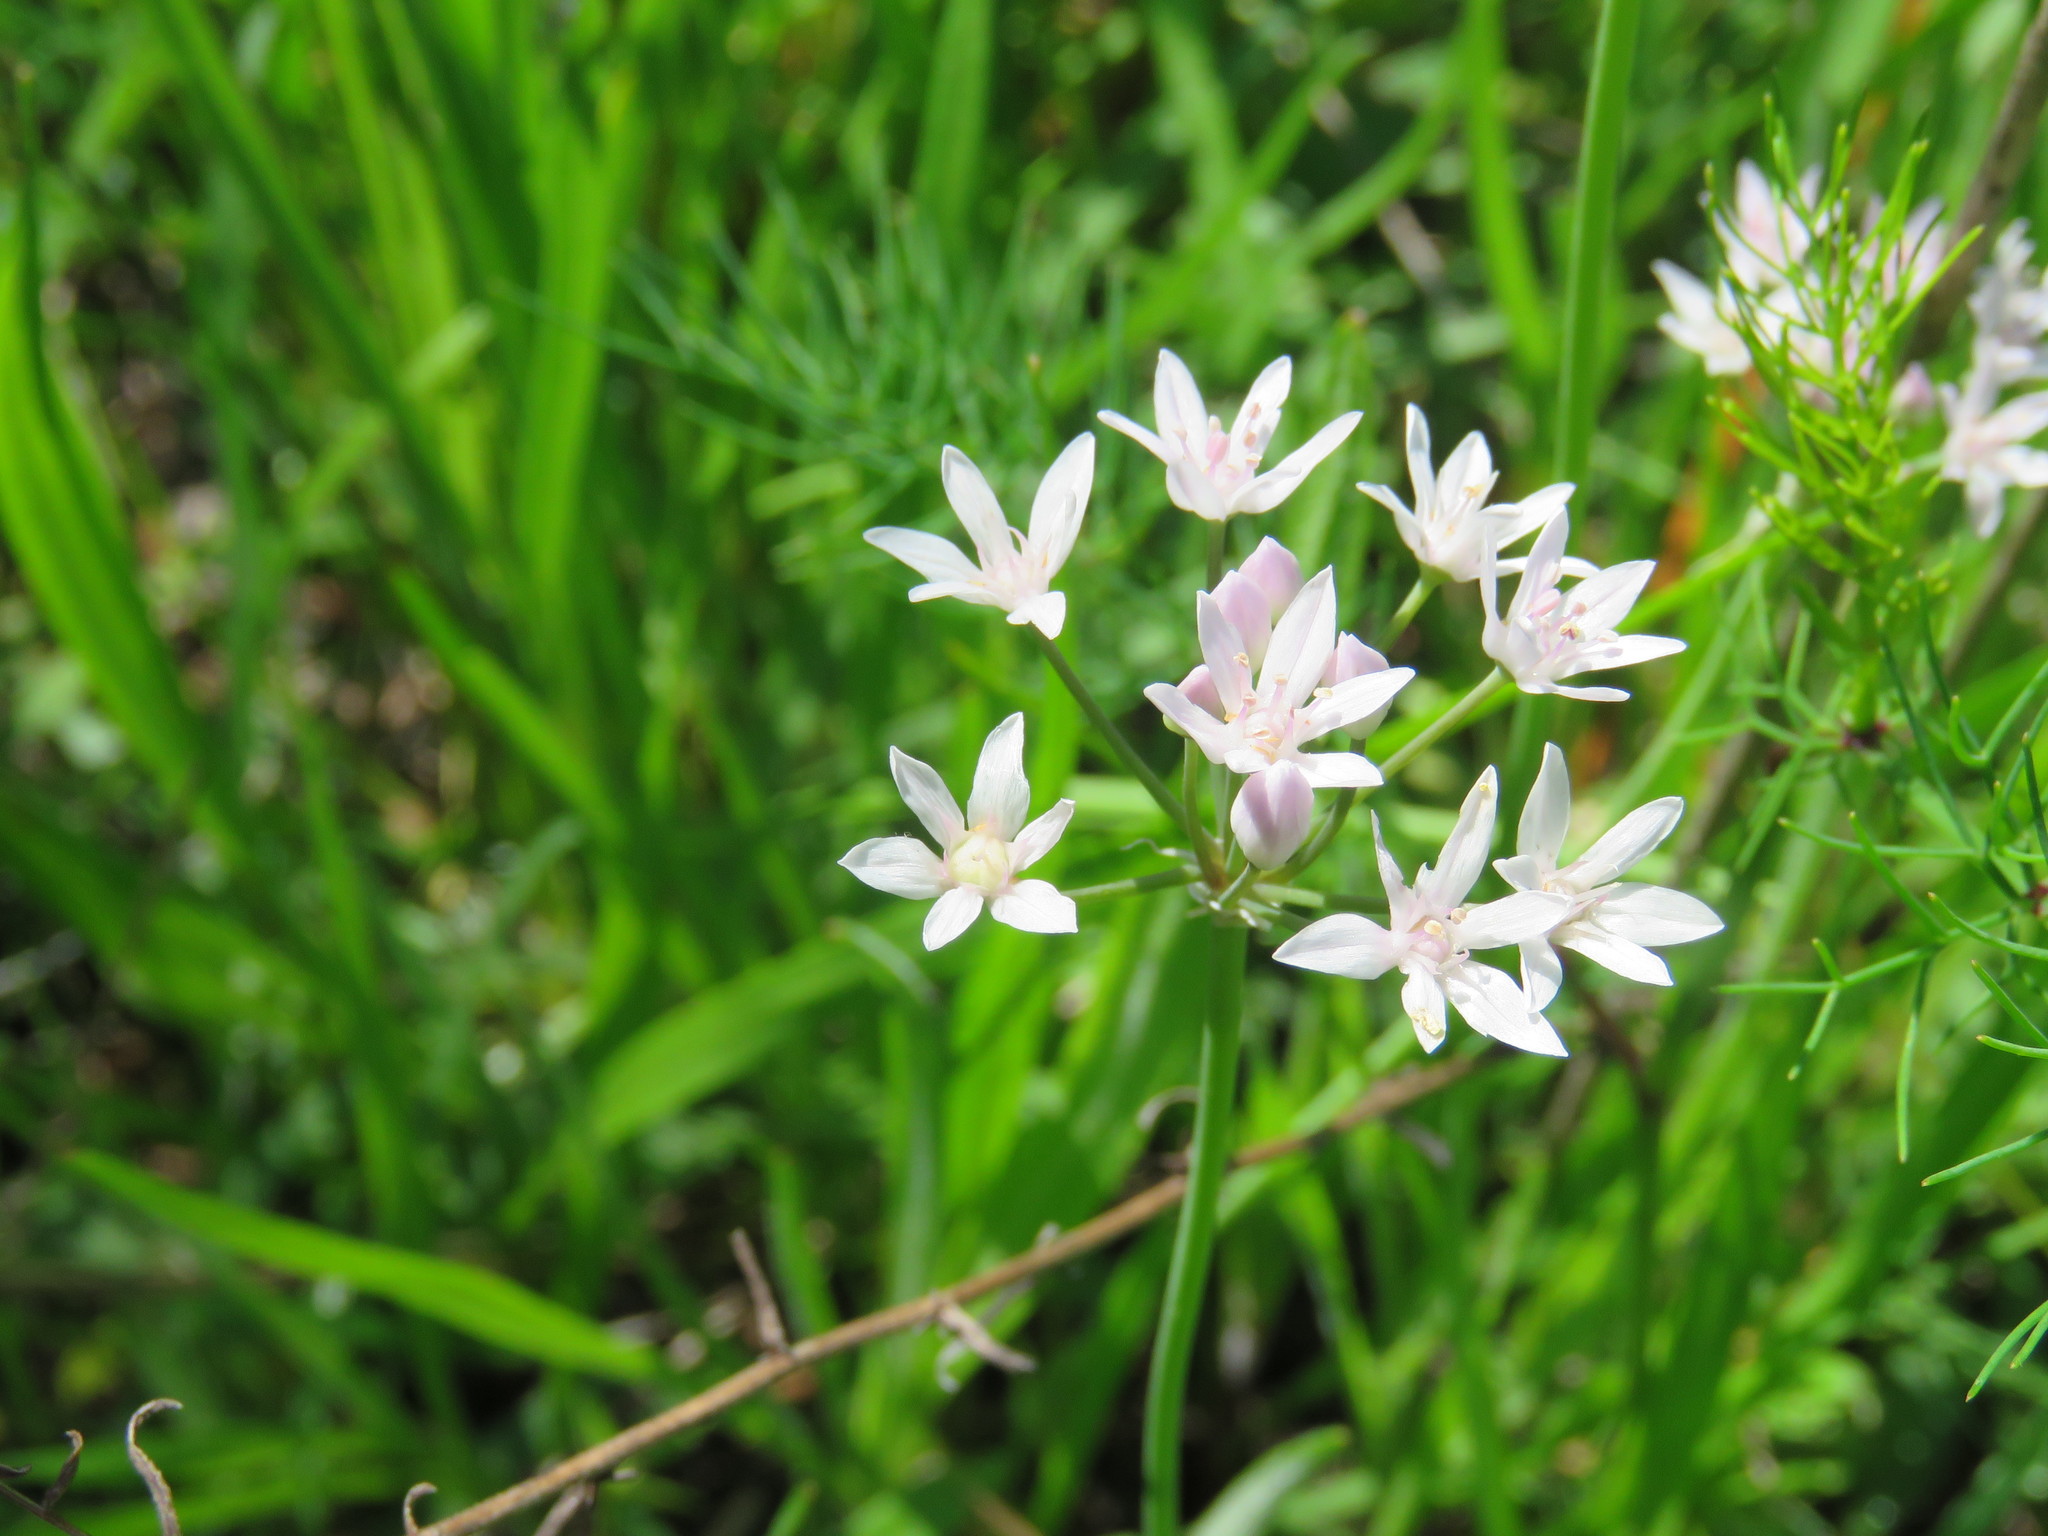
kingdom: Plantae
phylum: Tracheophyta
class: Liliopsida
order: Asparagales
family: Amaryllidaceae
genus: Allium
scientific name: Allium canadense
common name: Meadow garlic
